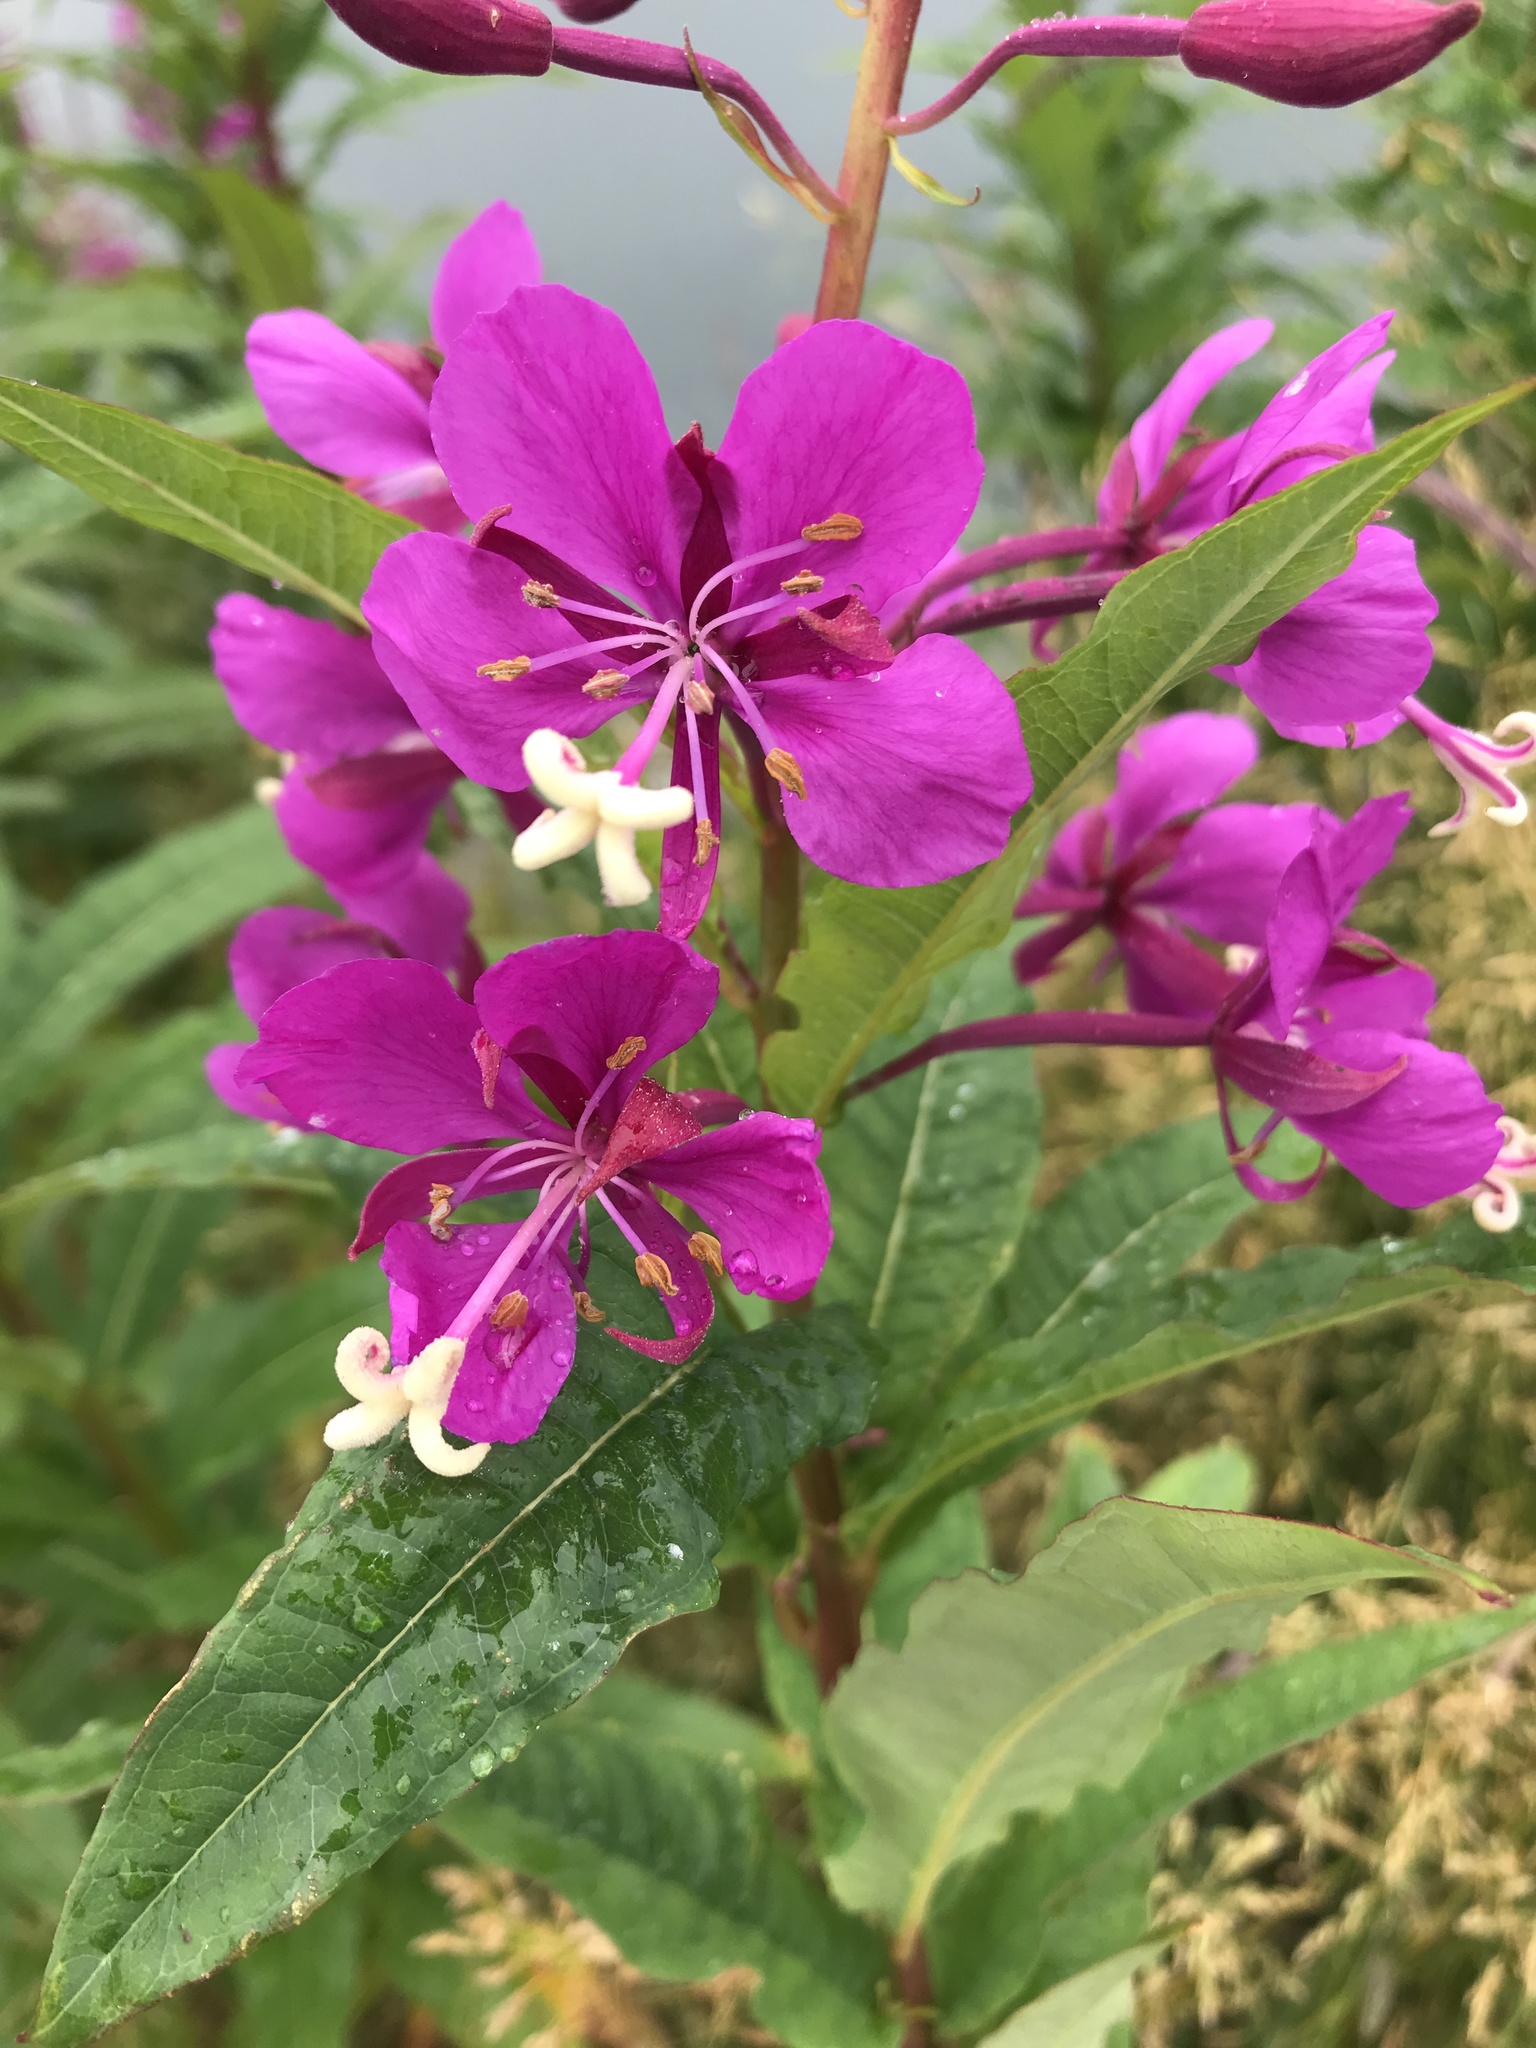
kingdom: Plantae
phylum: Tracheophyta
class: Magnoliopsida
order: Myrtales
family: Onagraceae
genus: Chamaenerion
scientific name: Chamaenerion angustifolium
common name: Fireweed
